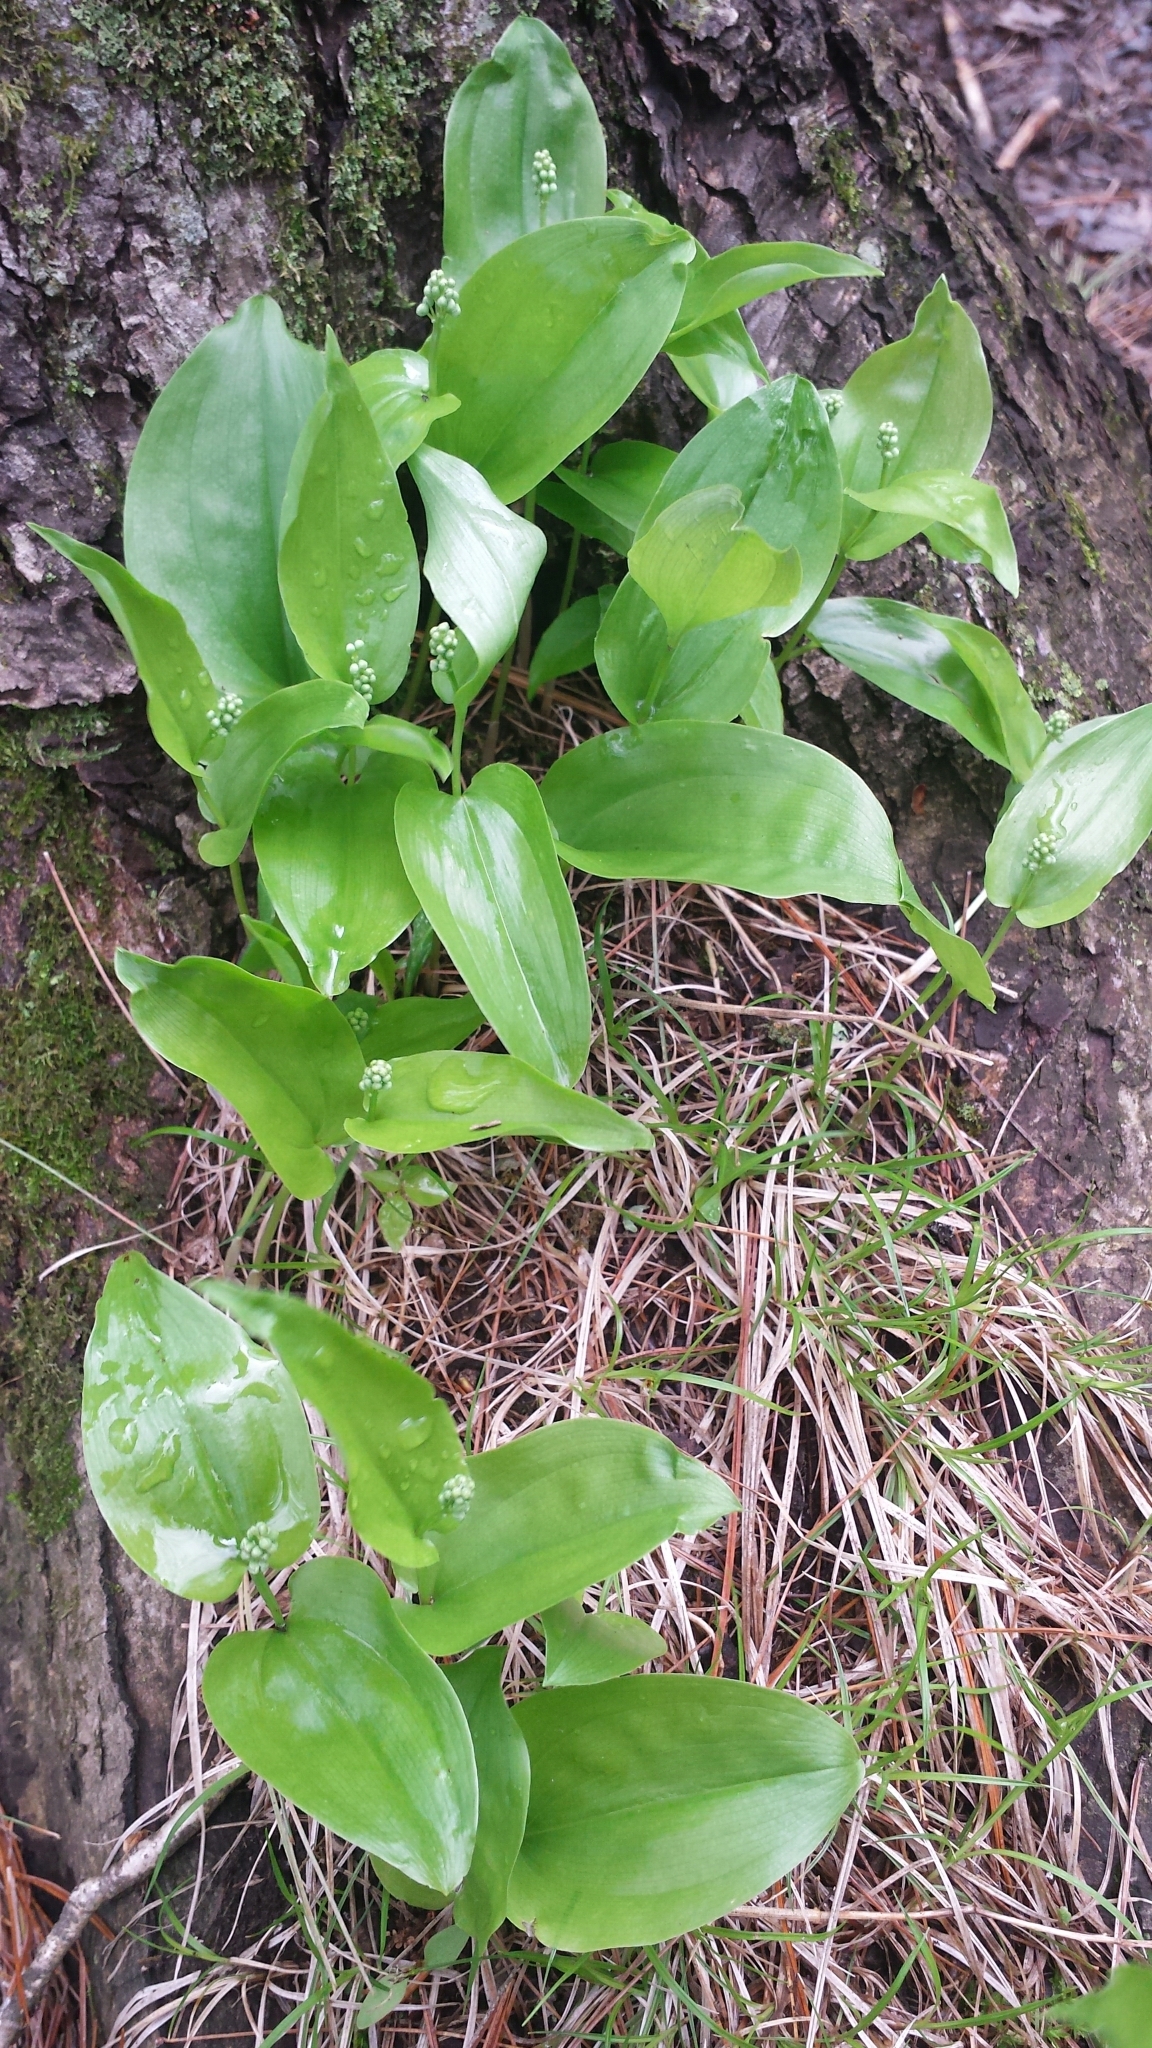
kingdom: Plantae
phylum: Tracheophyta
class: Liliopsida
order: Asparagales
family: Asparagaceae
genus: Maianthemum
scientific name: Maianthemum canadense
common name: False lily-of-the-valley
